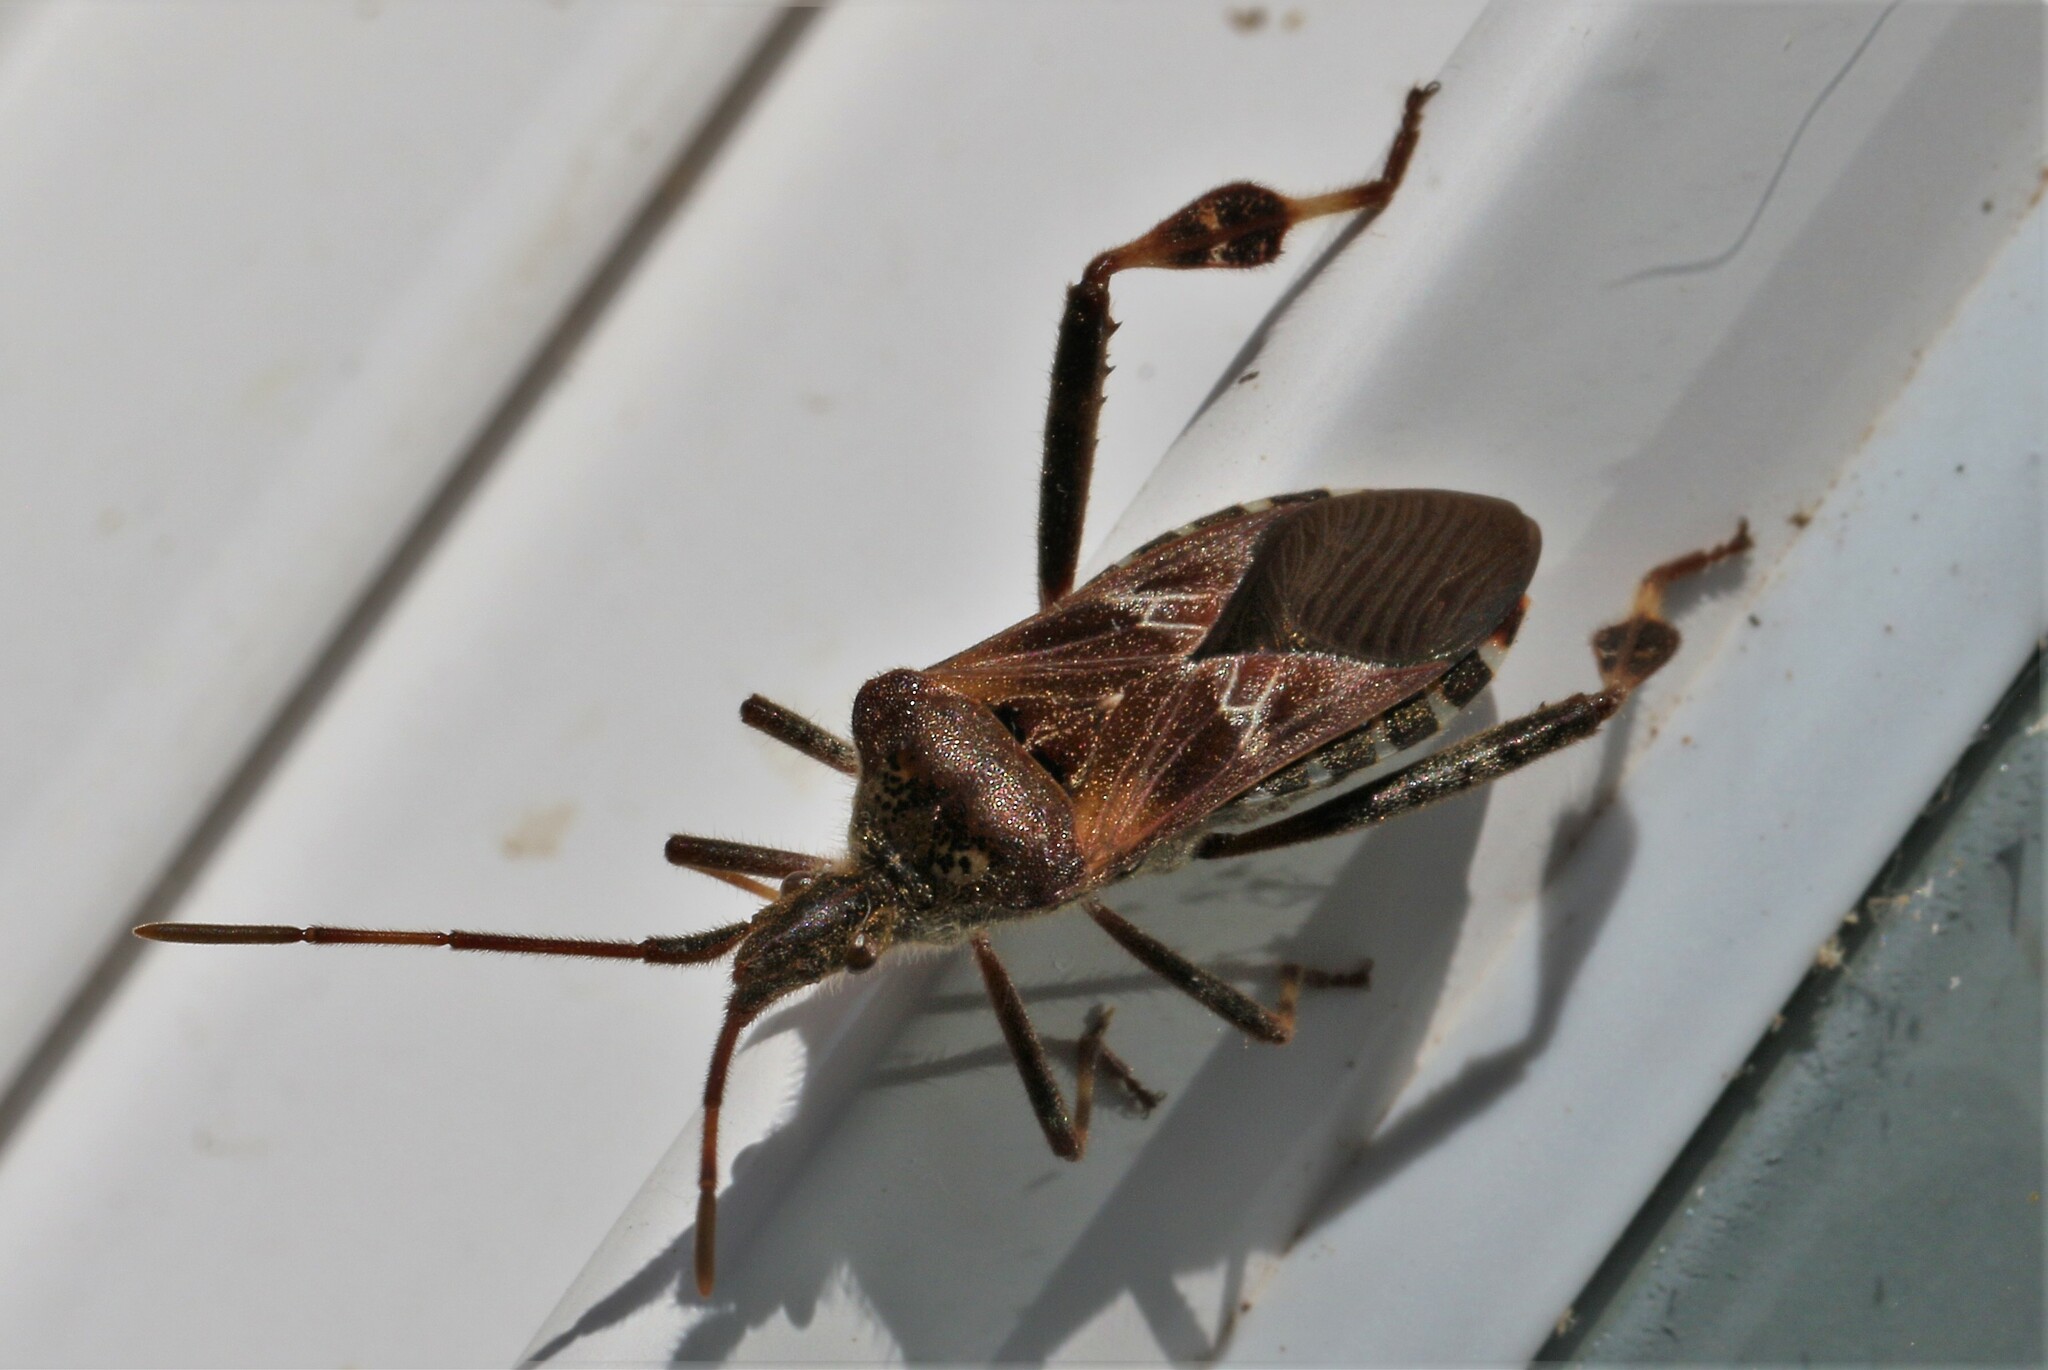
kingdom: Animalia
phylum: Arthropoda
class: Insecta
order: Hemiptera
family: Coreidae
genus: Leptoglossus
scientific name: Leptoglossus occidentalis
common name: Western conifer-seed bug
